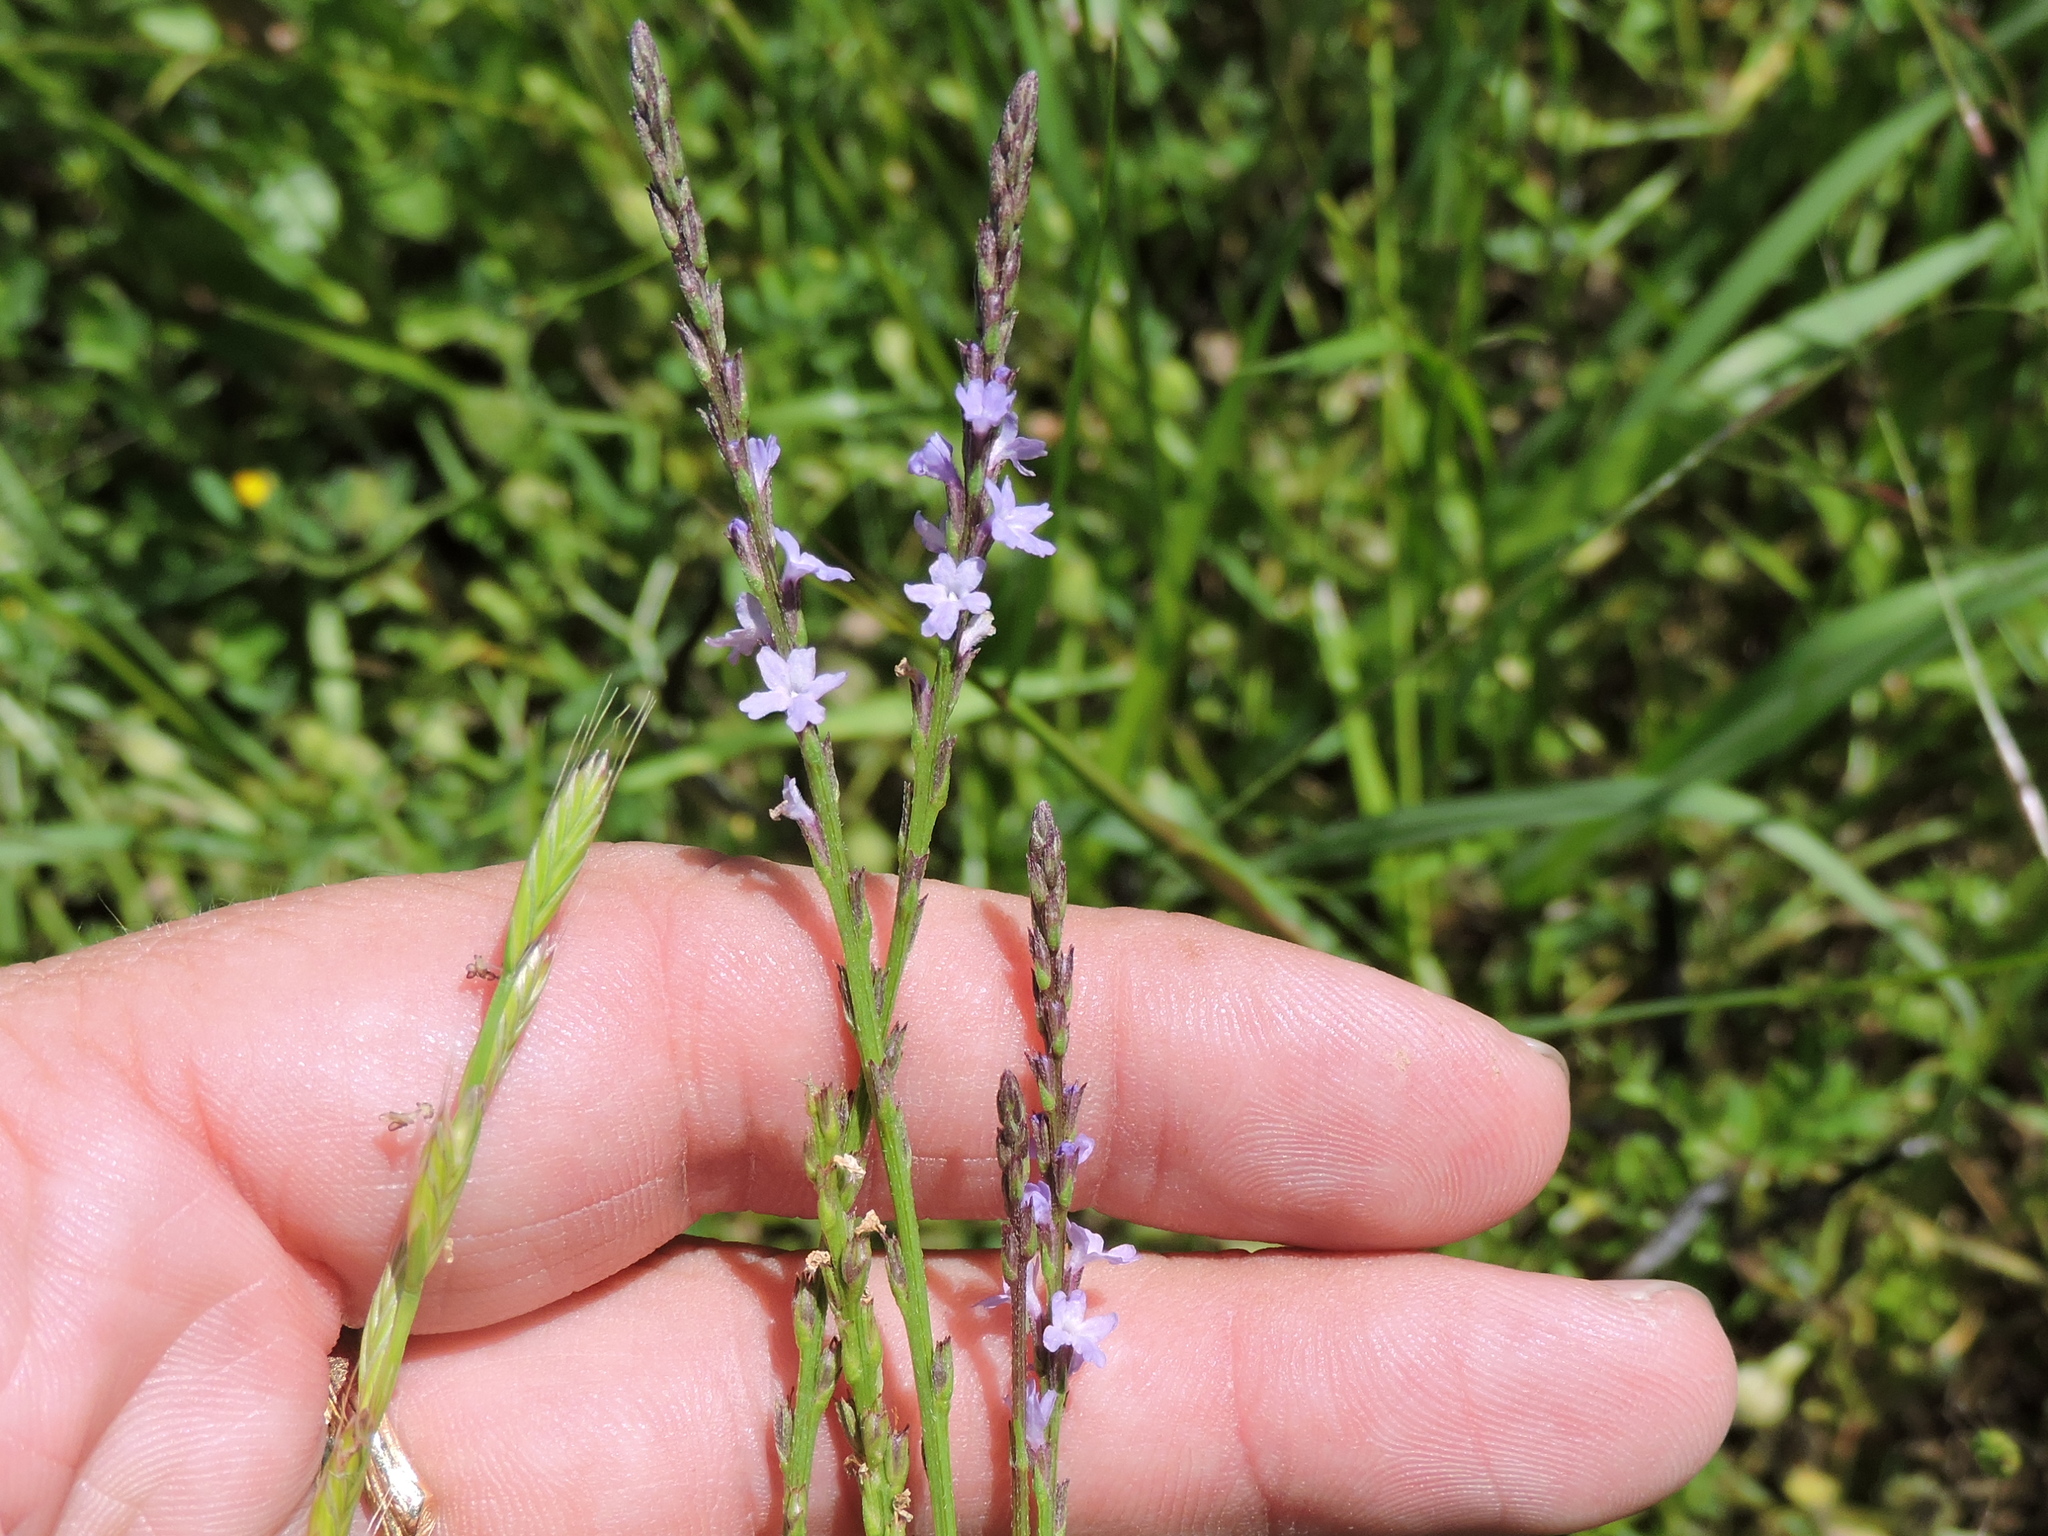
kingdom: Plantae
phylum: Tracheophyta
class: Magnoliopsida
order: Lamiales
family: Verbenaceae
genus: Verbena
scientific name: Verbena halei
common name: Texas vervain
